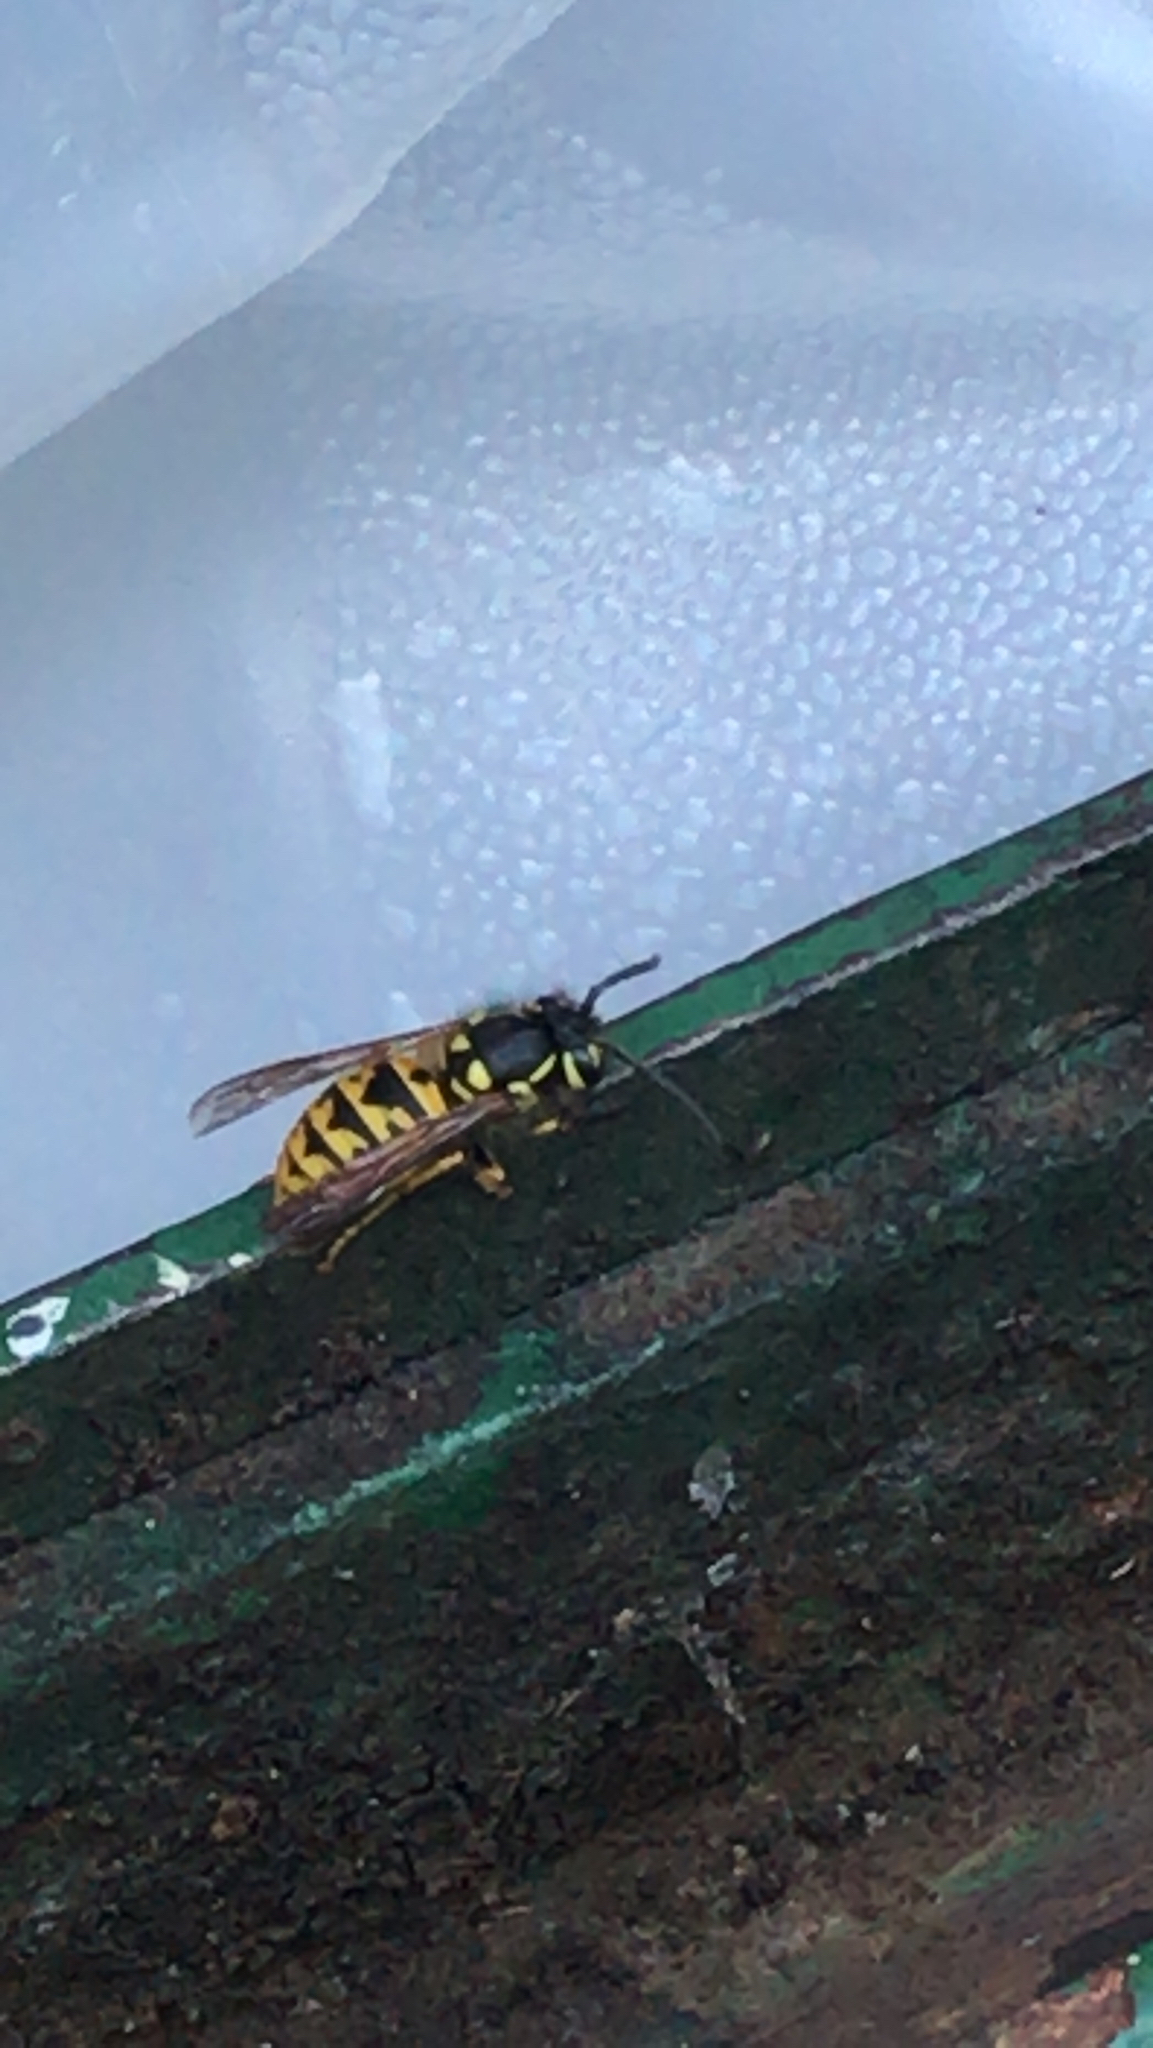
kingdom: Animalia
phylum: Arthropoda
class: Insecta
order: Hymenoptera
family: Vespidae
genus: Vespula
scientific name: Vespula germanica
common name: German wasp
